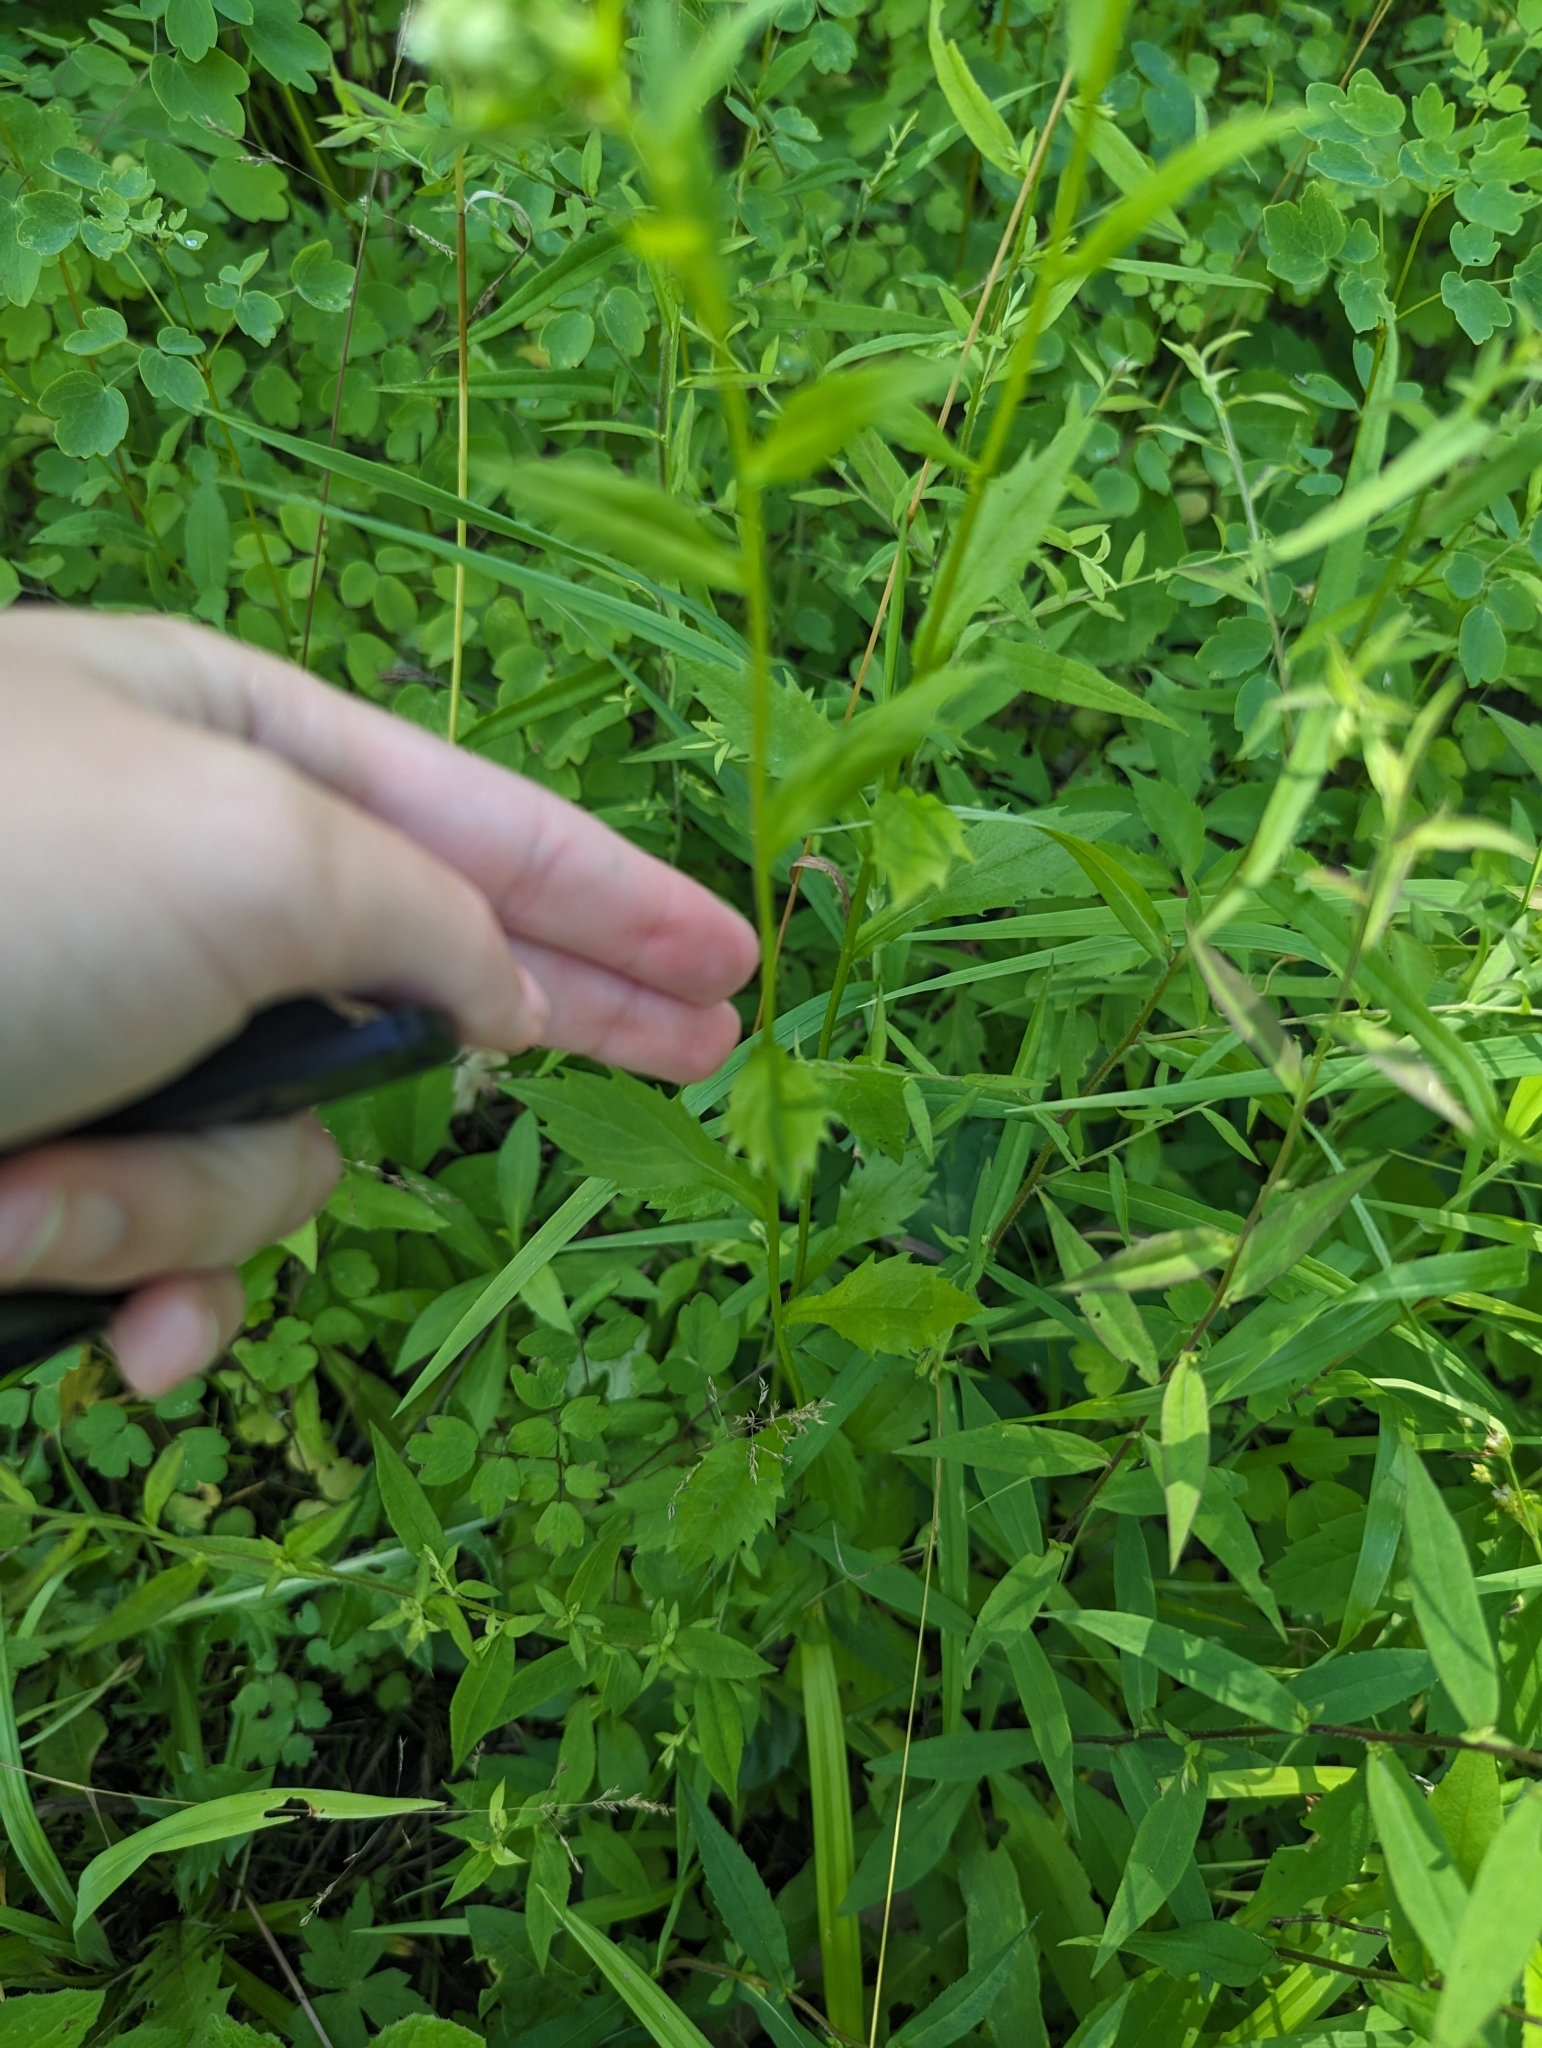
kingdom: Plantae
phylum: Tracheophyta
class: Magnoliopsida
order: Asterales
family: Asteraceae
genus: Erigeron
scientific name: Erigeron annuus
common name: Tall fleabane
